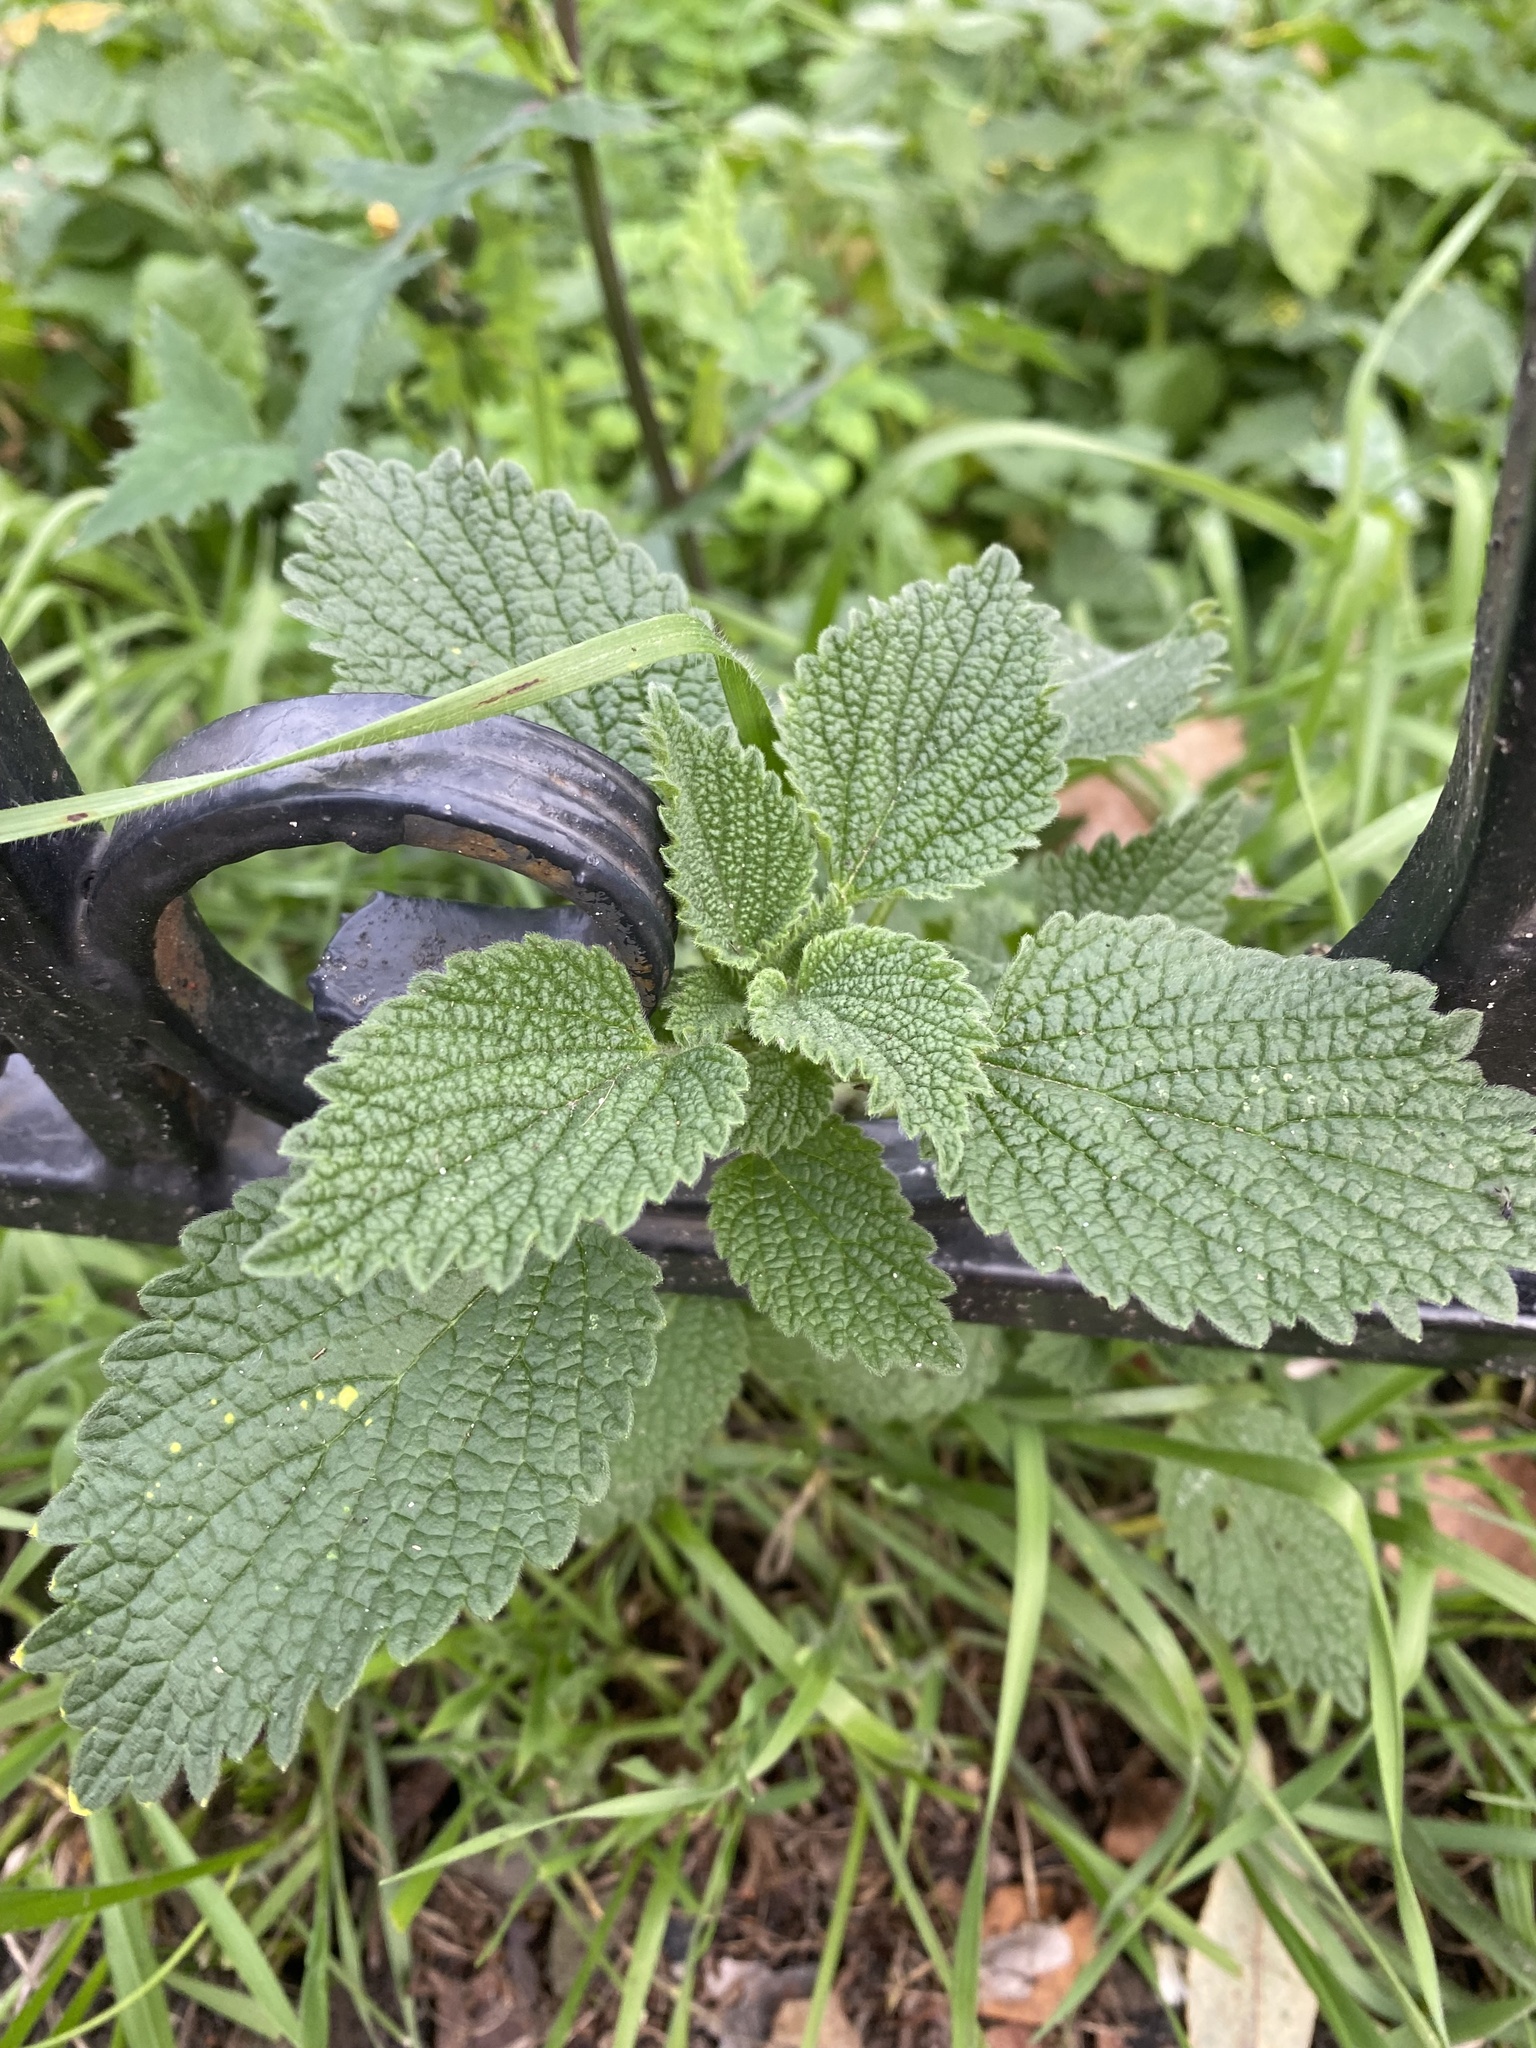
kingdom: Plantae
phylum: Tracheophyta
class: Magnoliopsida
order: Lamiales
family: Lamiaceae
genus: Ballota
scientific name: Ballota nigra
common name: Black horehound
